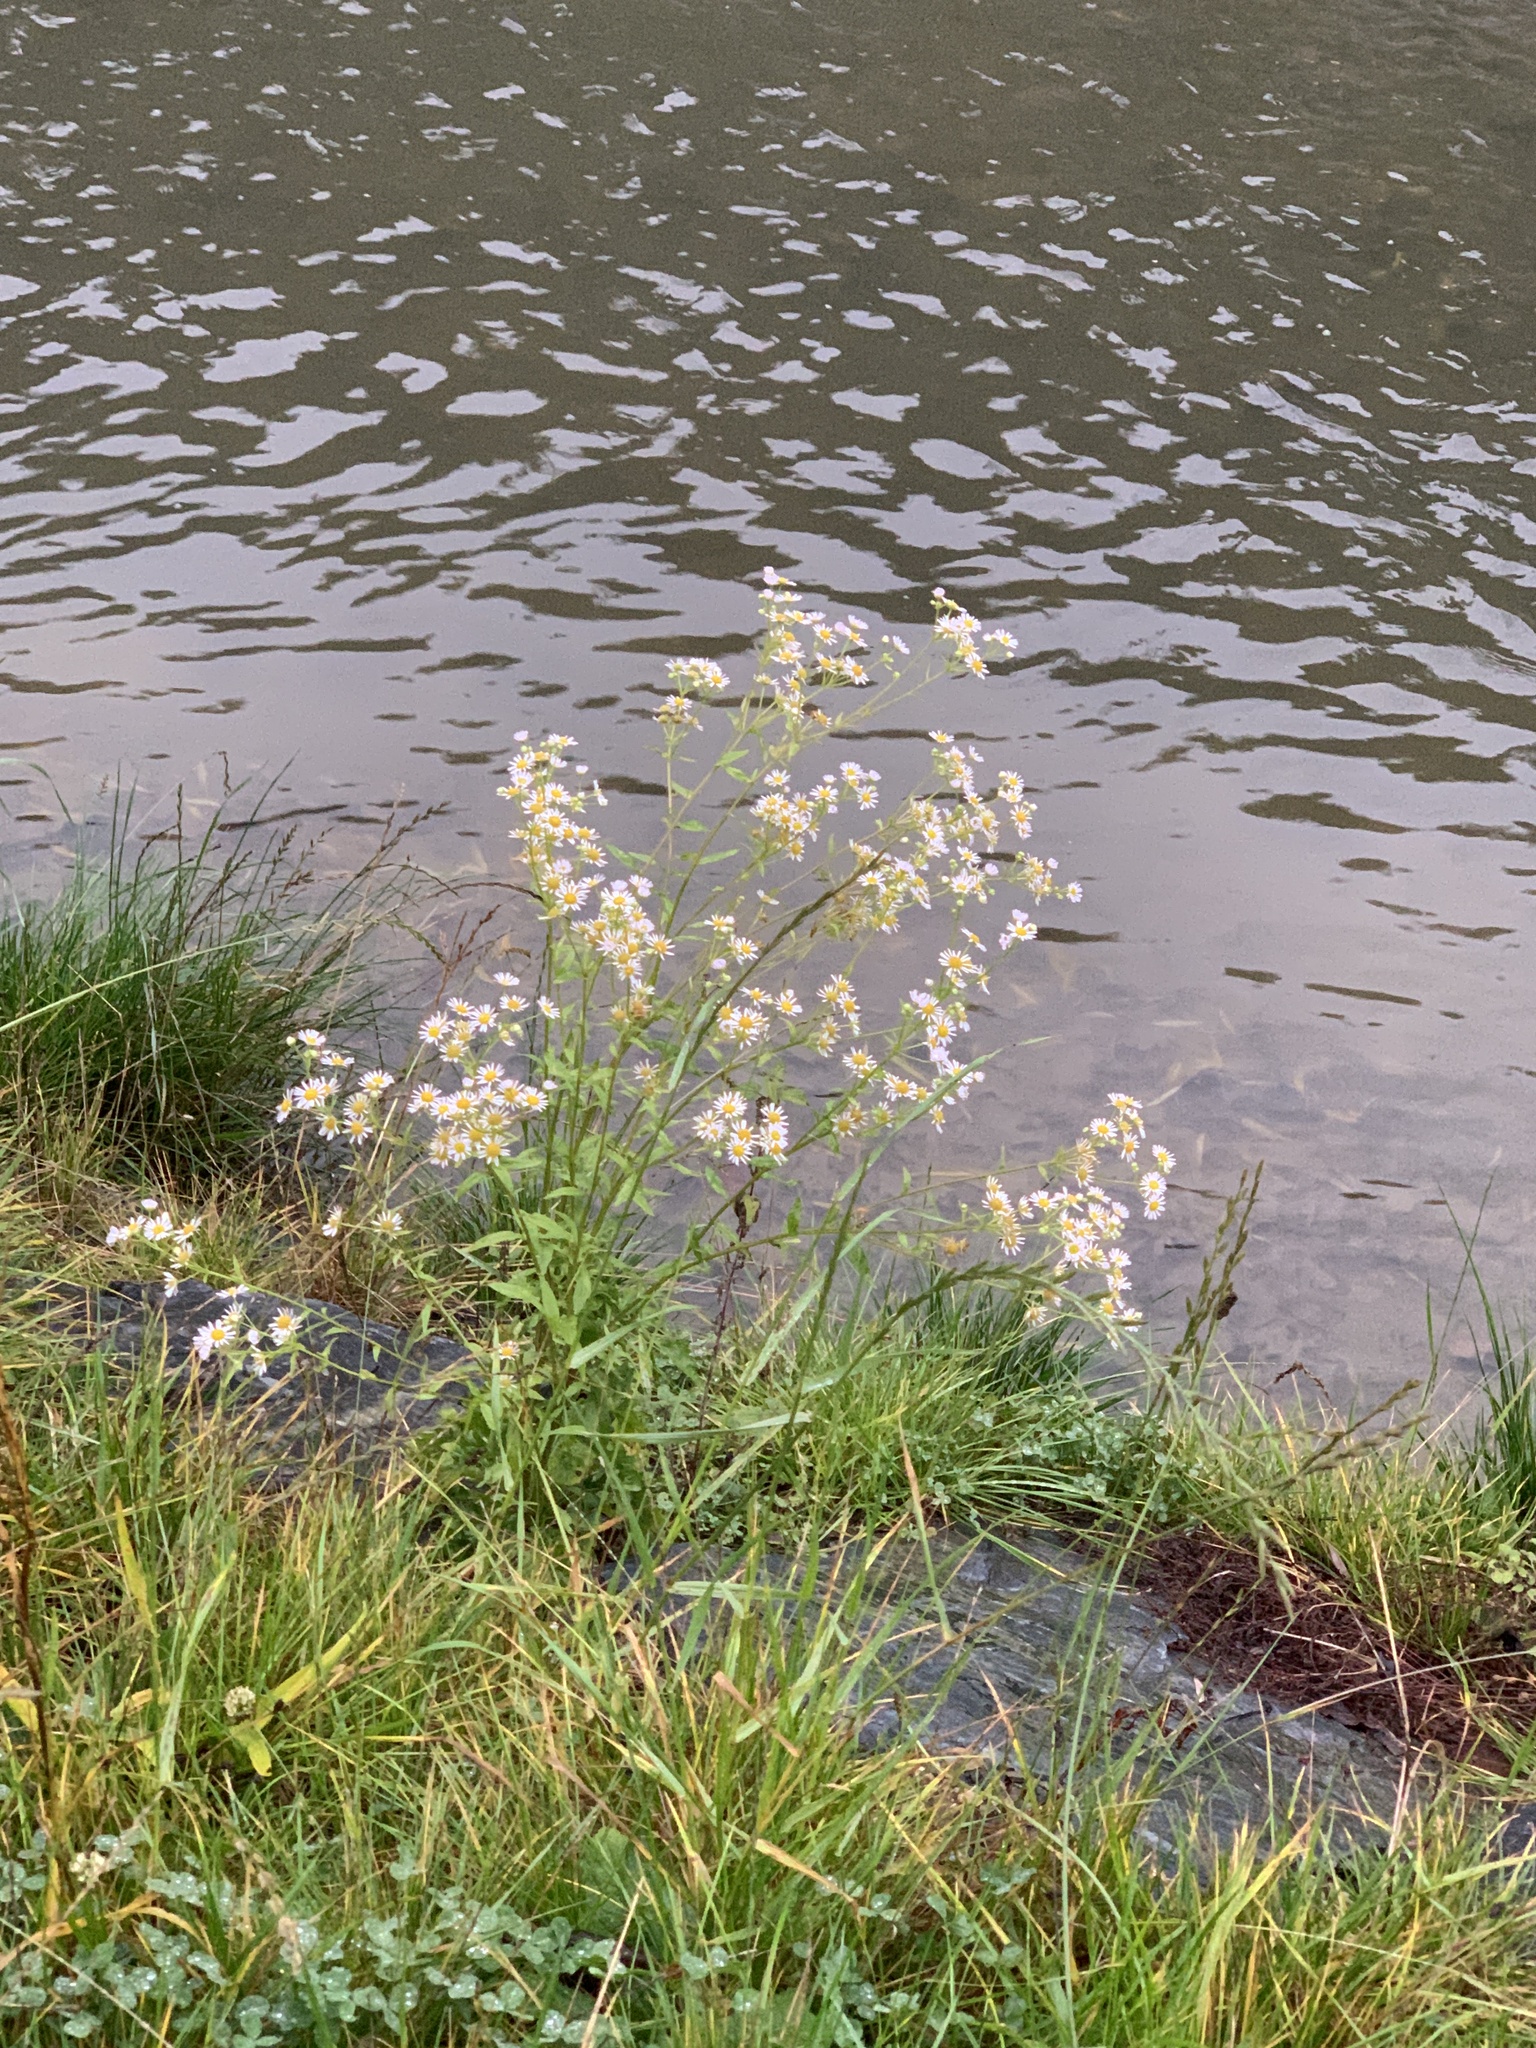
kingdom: Plantae
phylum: Tracheophyta
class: Magnoliopsida
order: Asterales
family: Asteraceae
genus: Erigeron
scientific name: Erigeron annuus
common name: Tall fleabane
